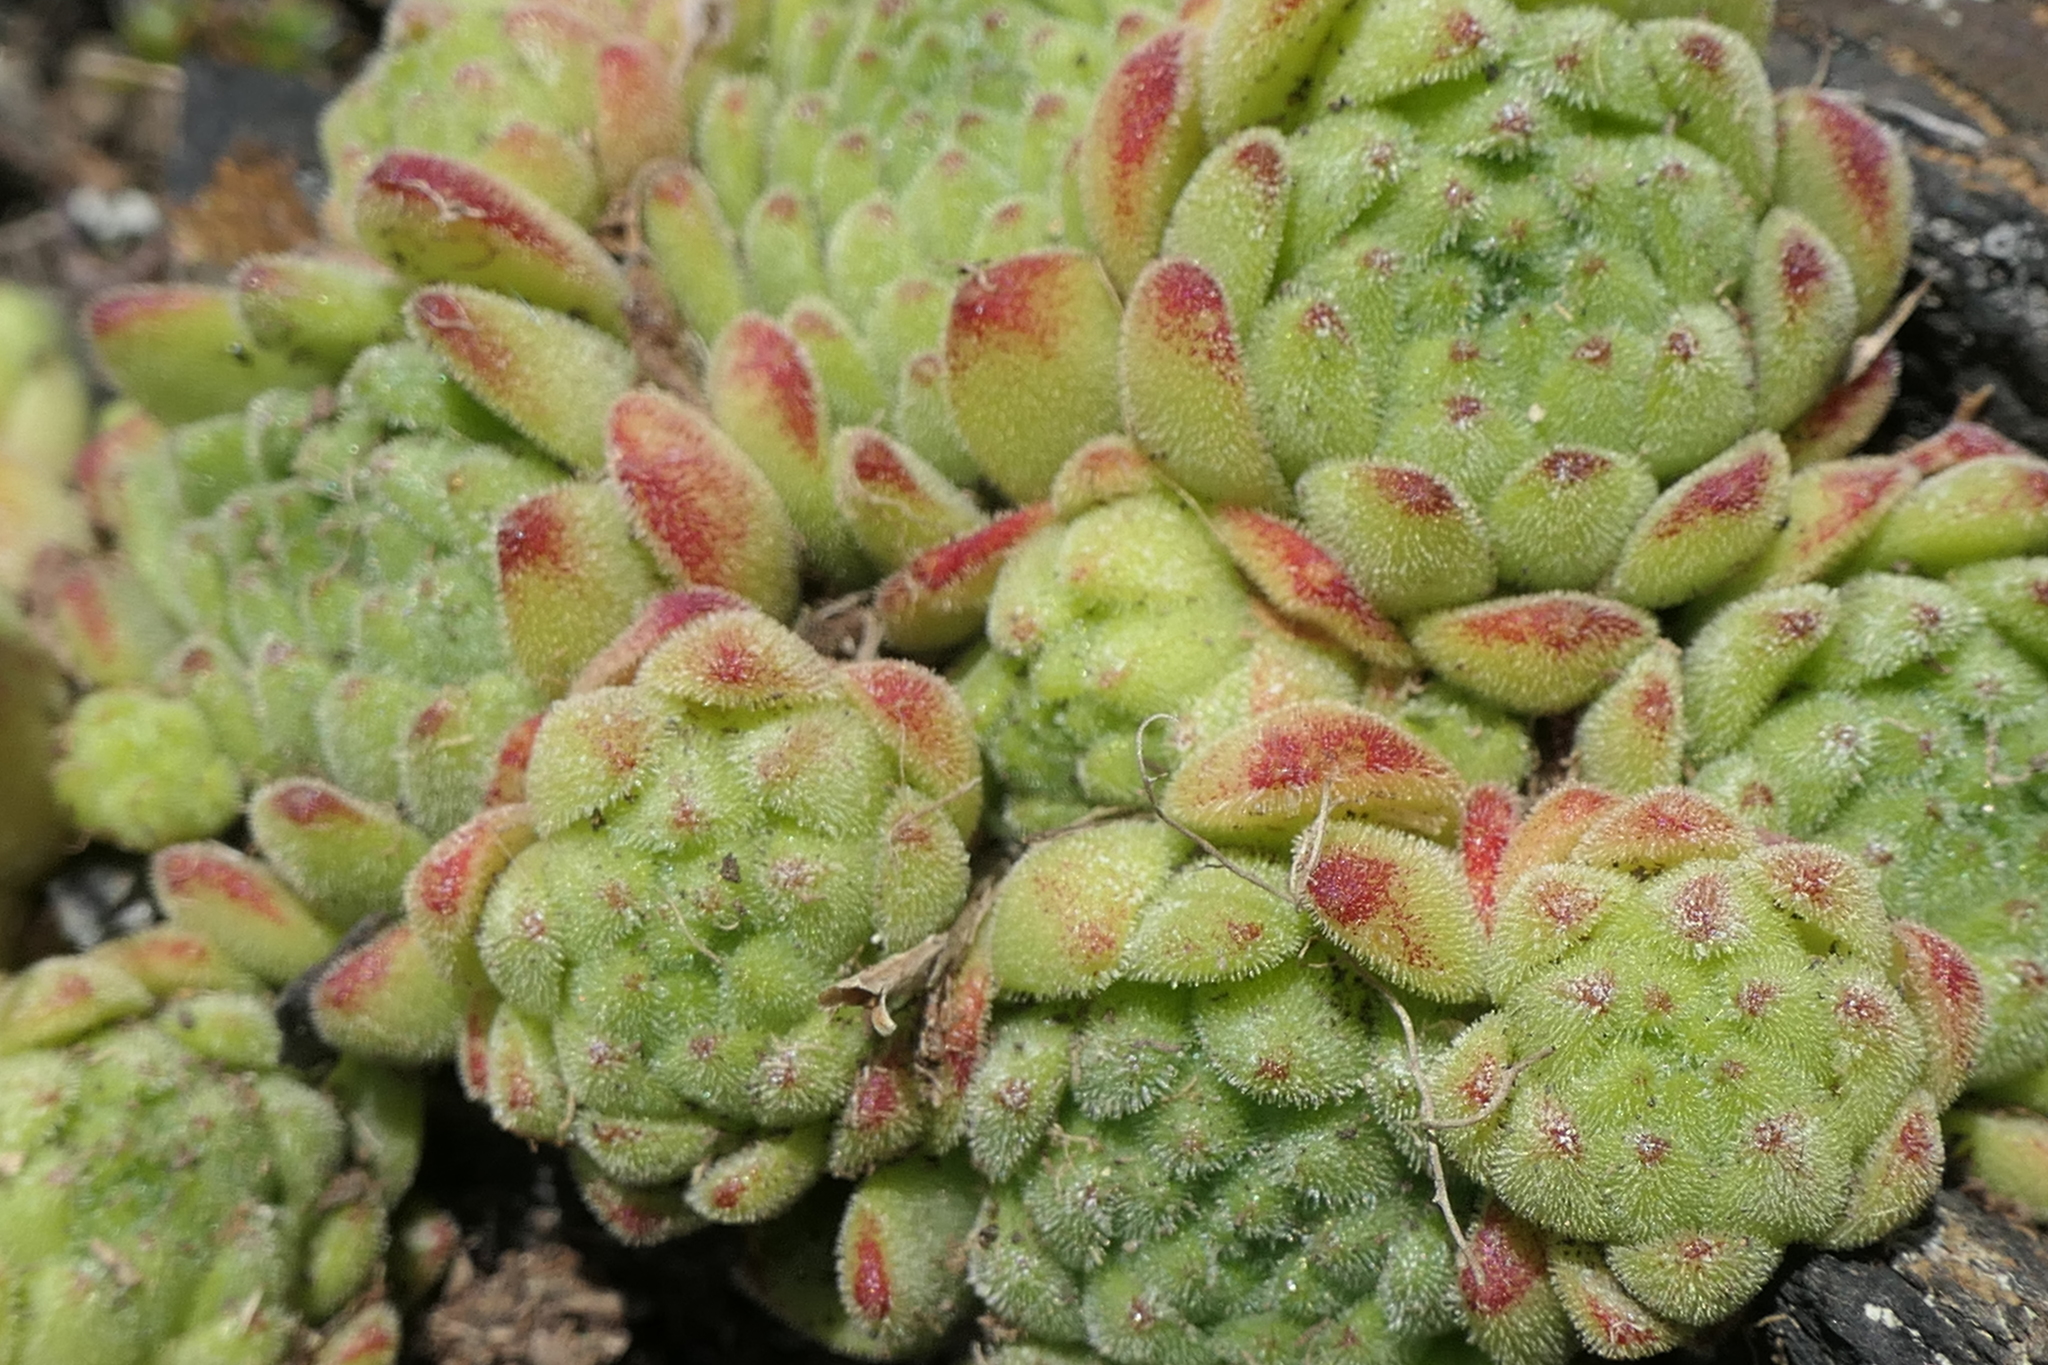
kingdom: Plantae
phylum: Tracheophyta
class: Magnoliopsida
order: Saxifragales
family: Crassulaceae
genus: Sempervivum
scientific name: Sempervivum montanum
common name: Mountain house-leek
